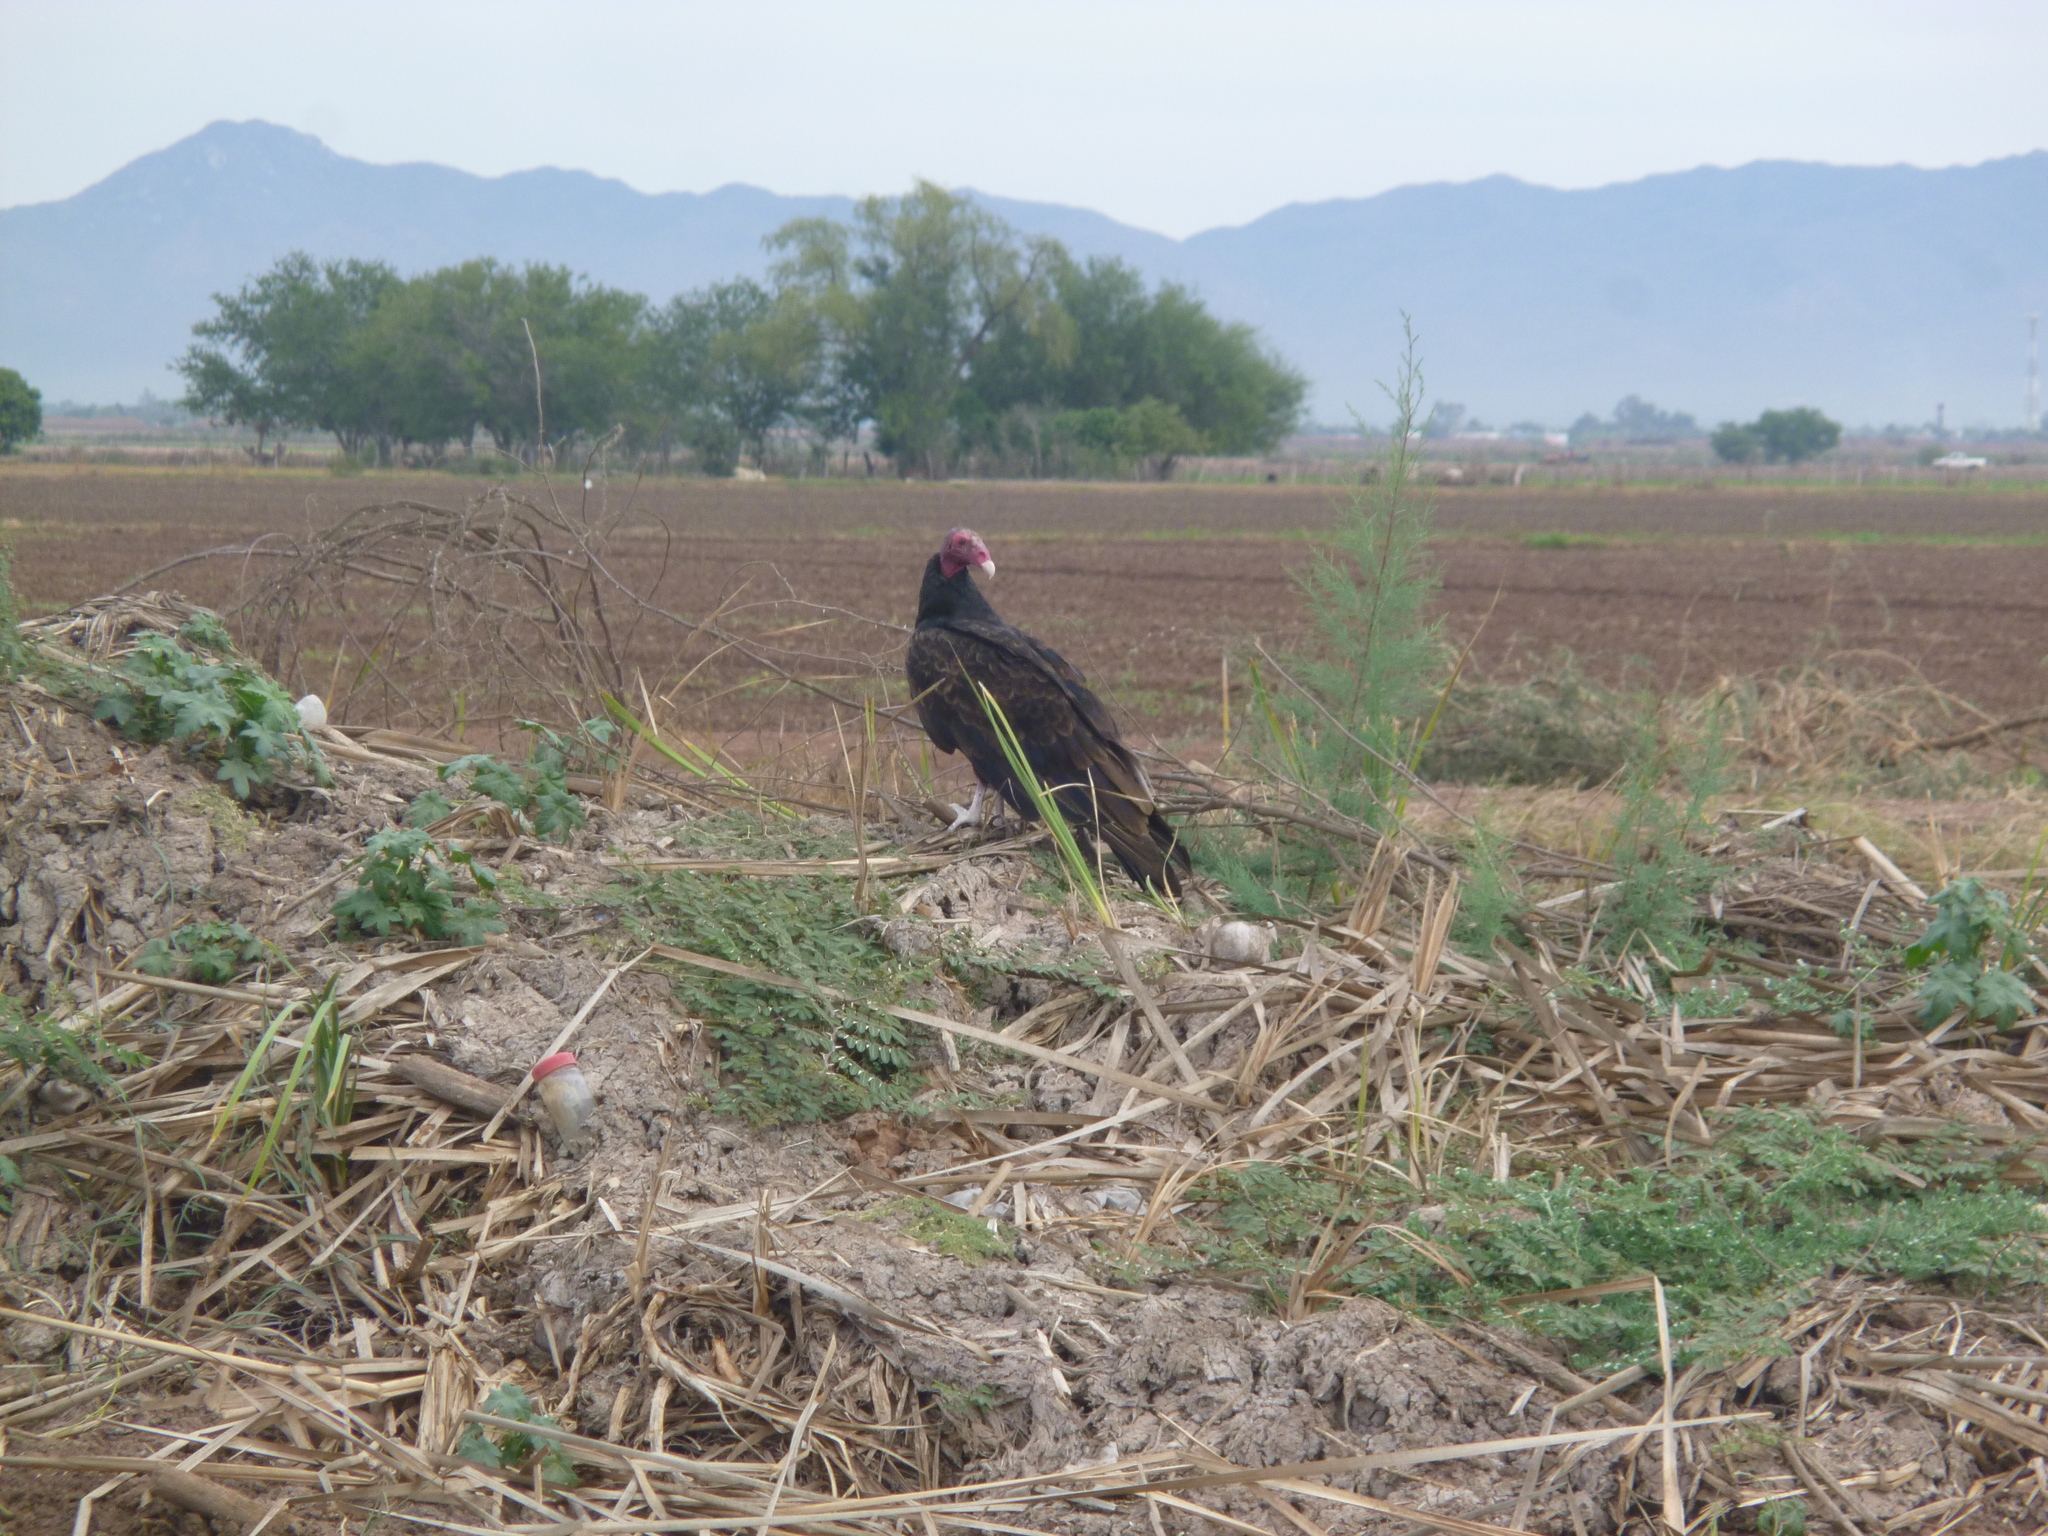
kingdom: Animalia
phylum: Chordata
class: Aves
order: Accipitriformes
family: Cathartidae
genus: Cathartes
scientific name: Cathartes aura
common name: Turkey vulture
